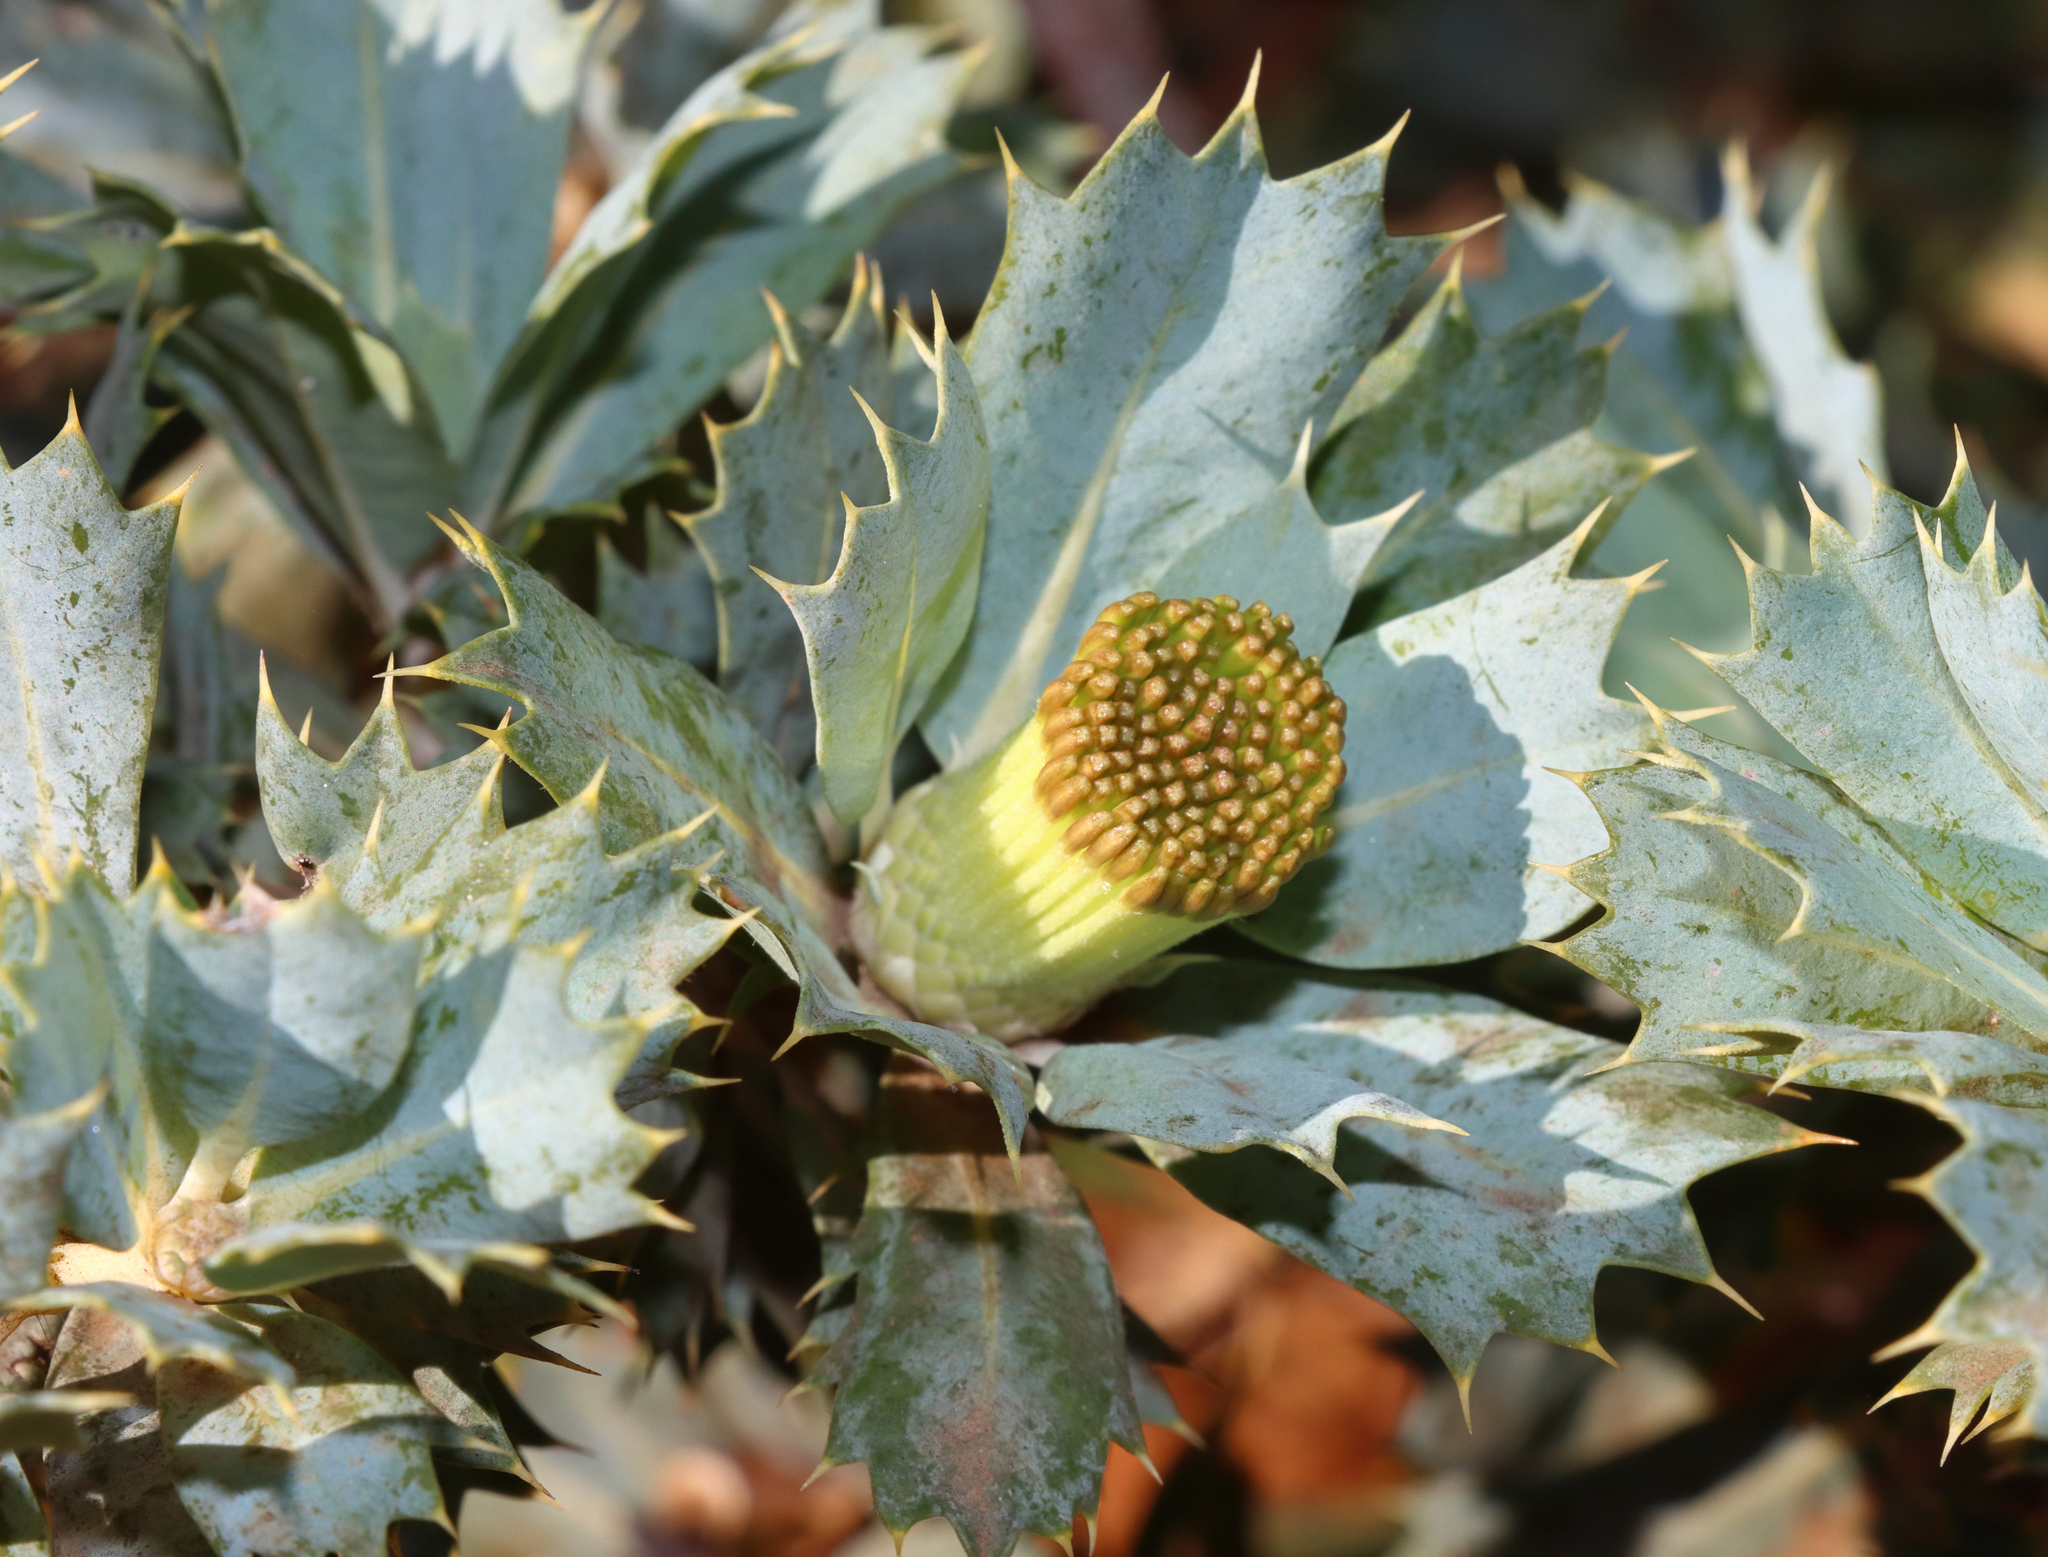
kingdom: Plantae
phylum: Tracheophyta
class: Magnoliopsida
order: Proteales
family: Proteaceae
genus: Banksia
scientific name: Banksia sessilis
